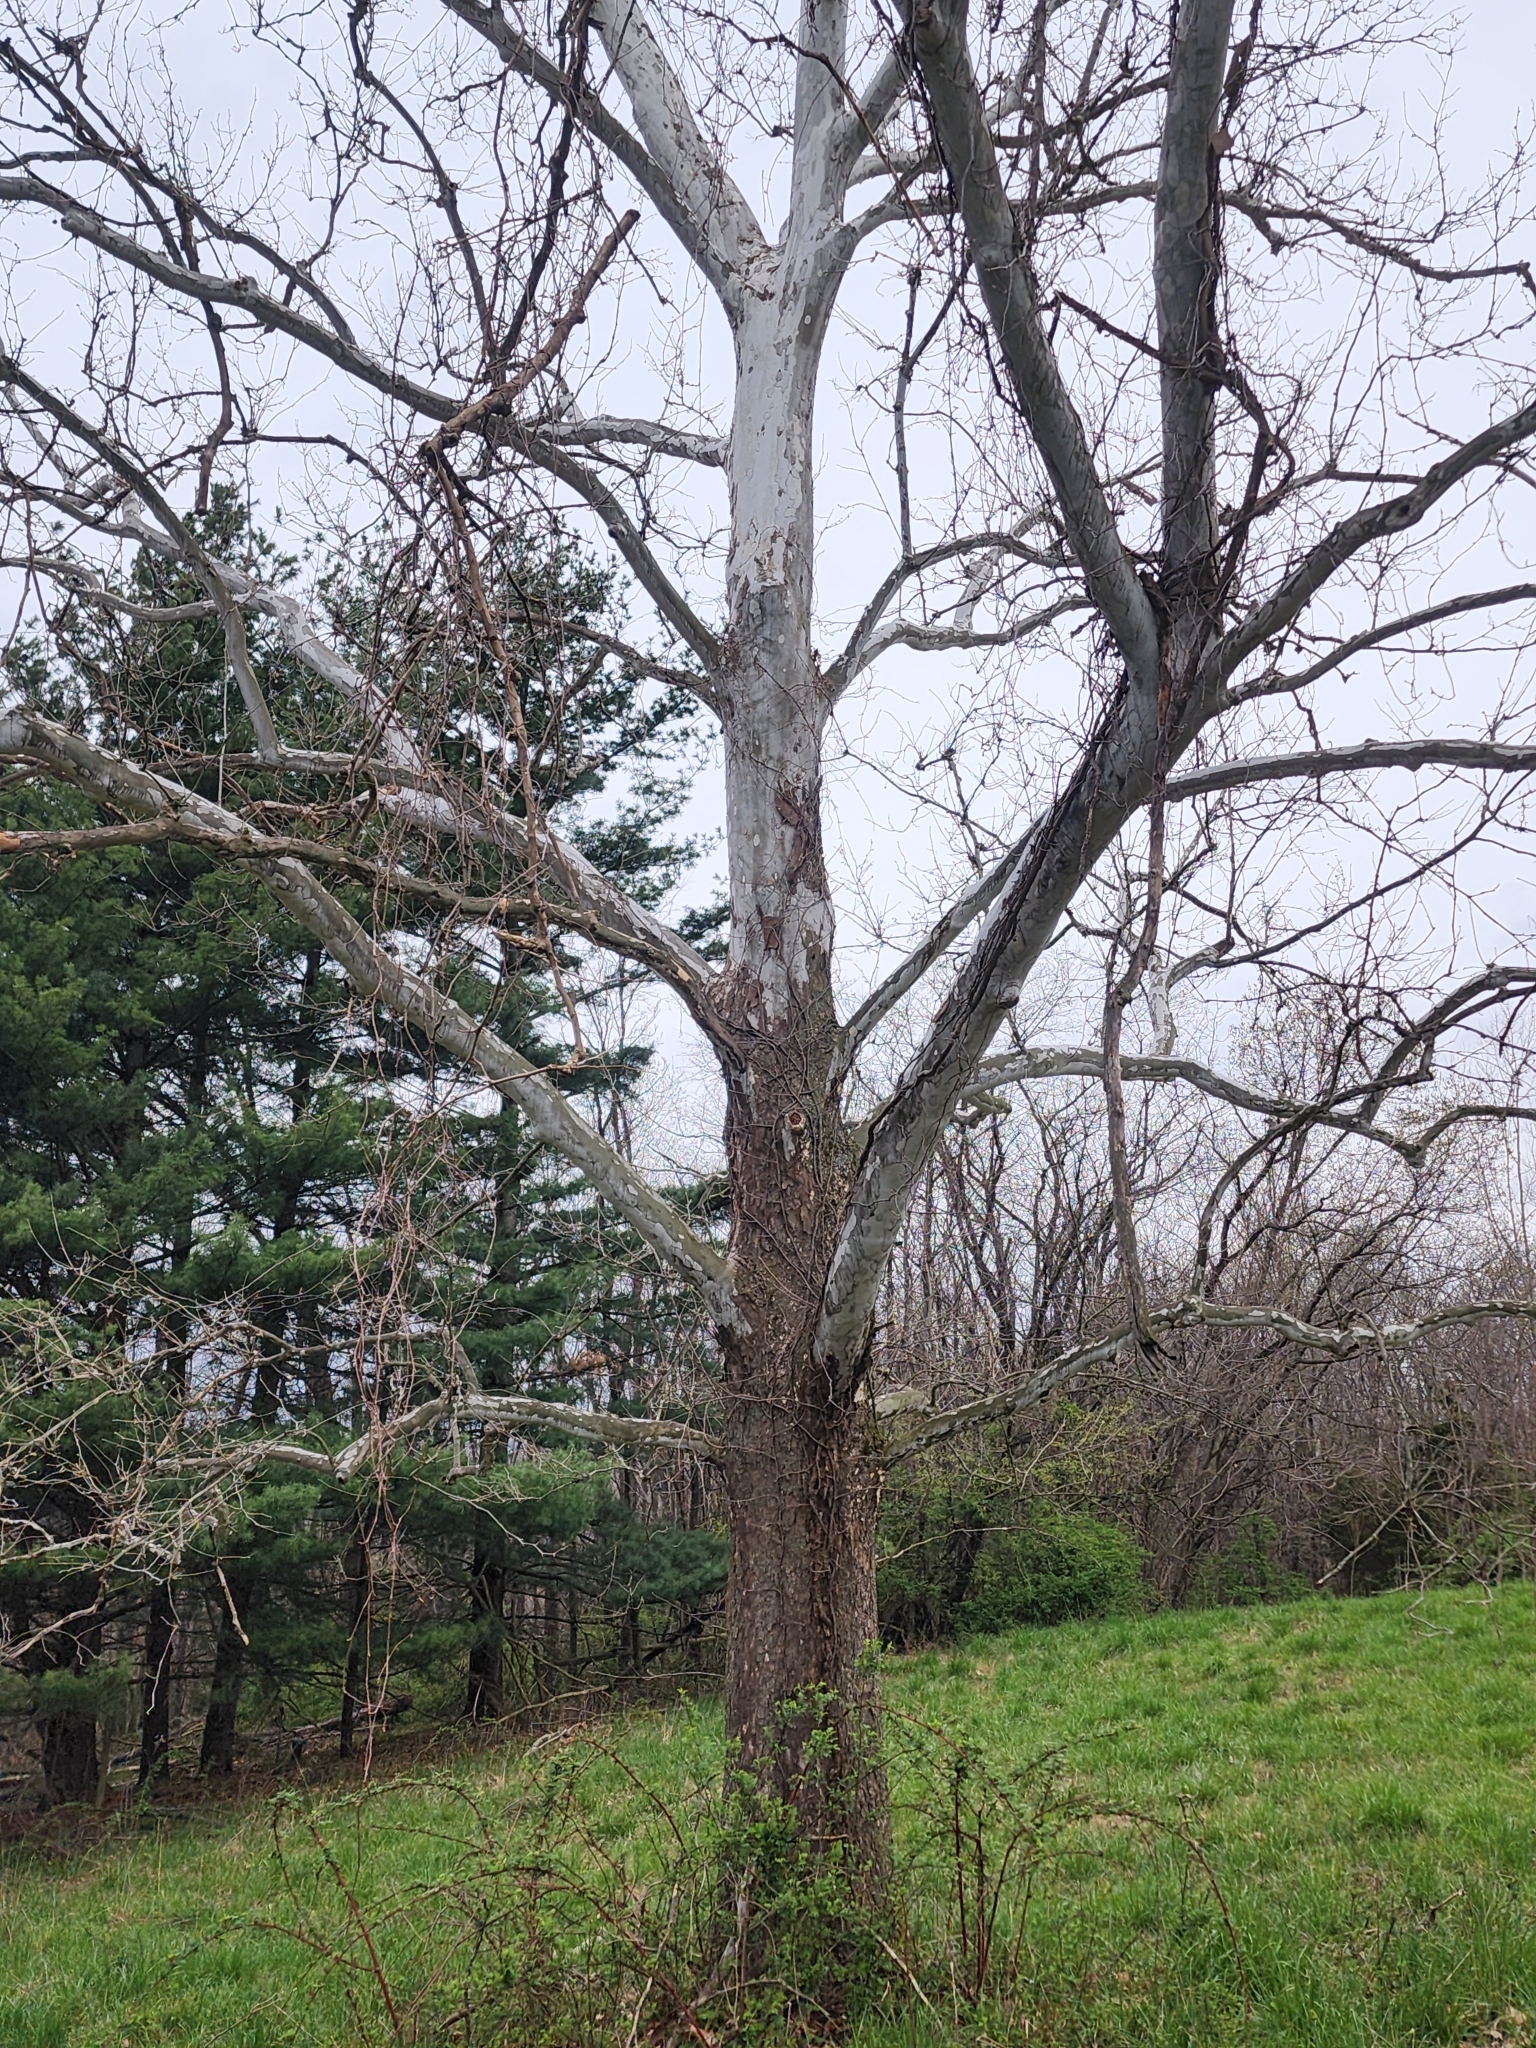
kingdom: Plantae
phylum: Tracheophyta
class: Magnoliopsida
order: Proteales
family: Platanaceae
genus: Platanus
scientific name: Platanus occidentalis
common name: American sycamore
